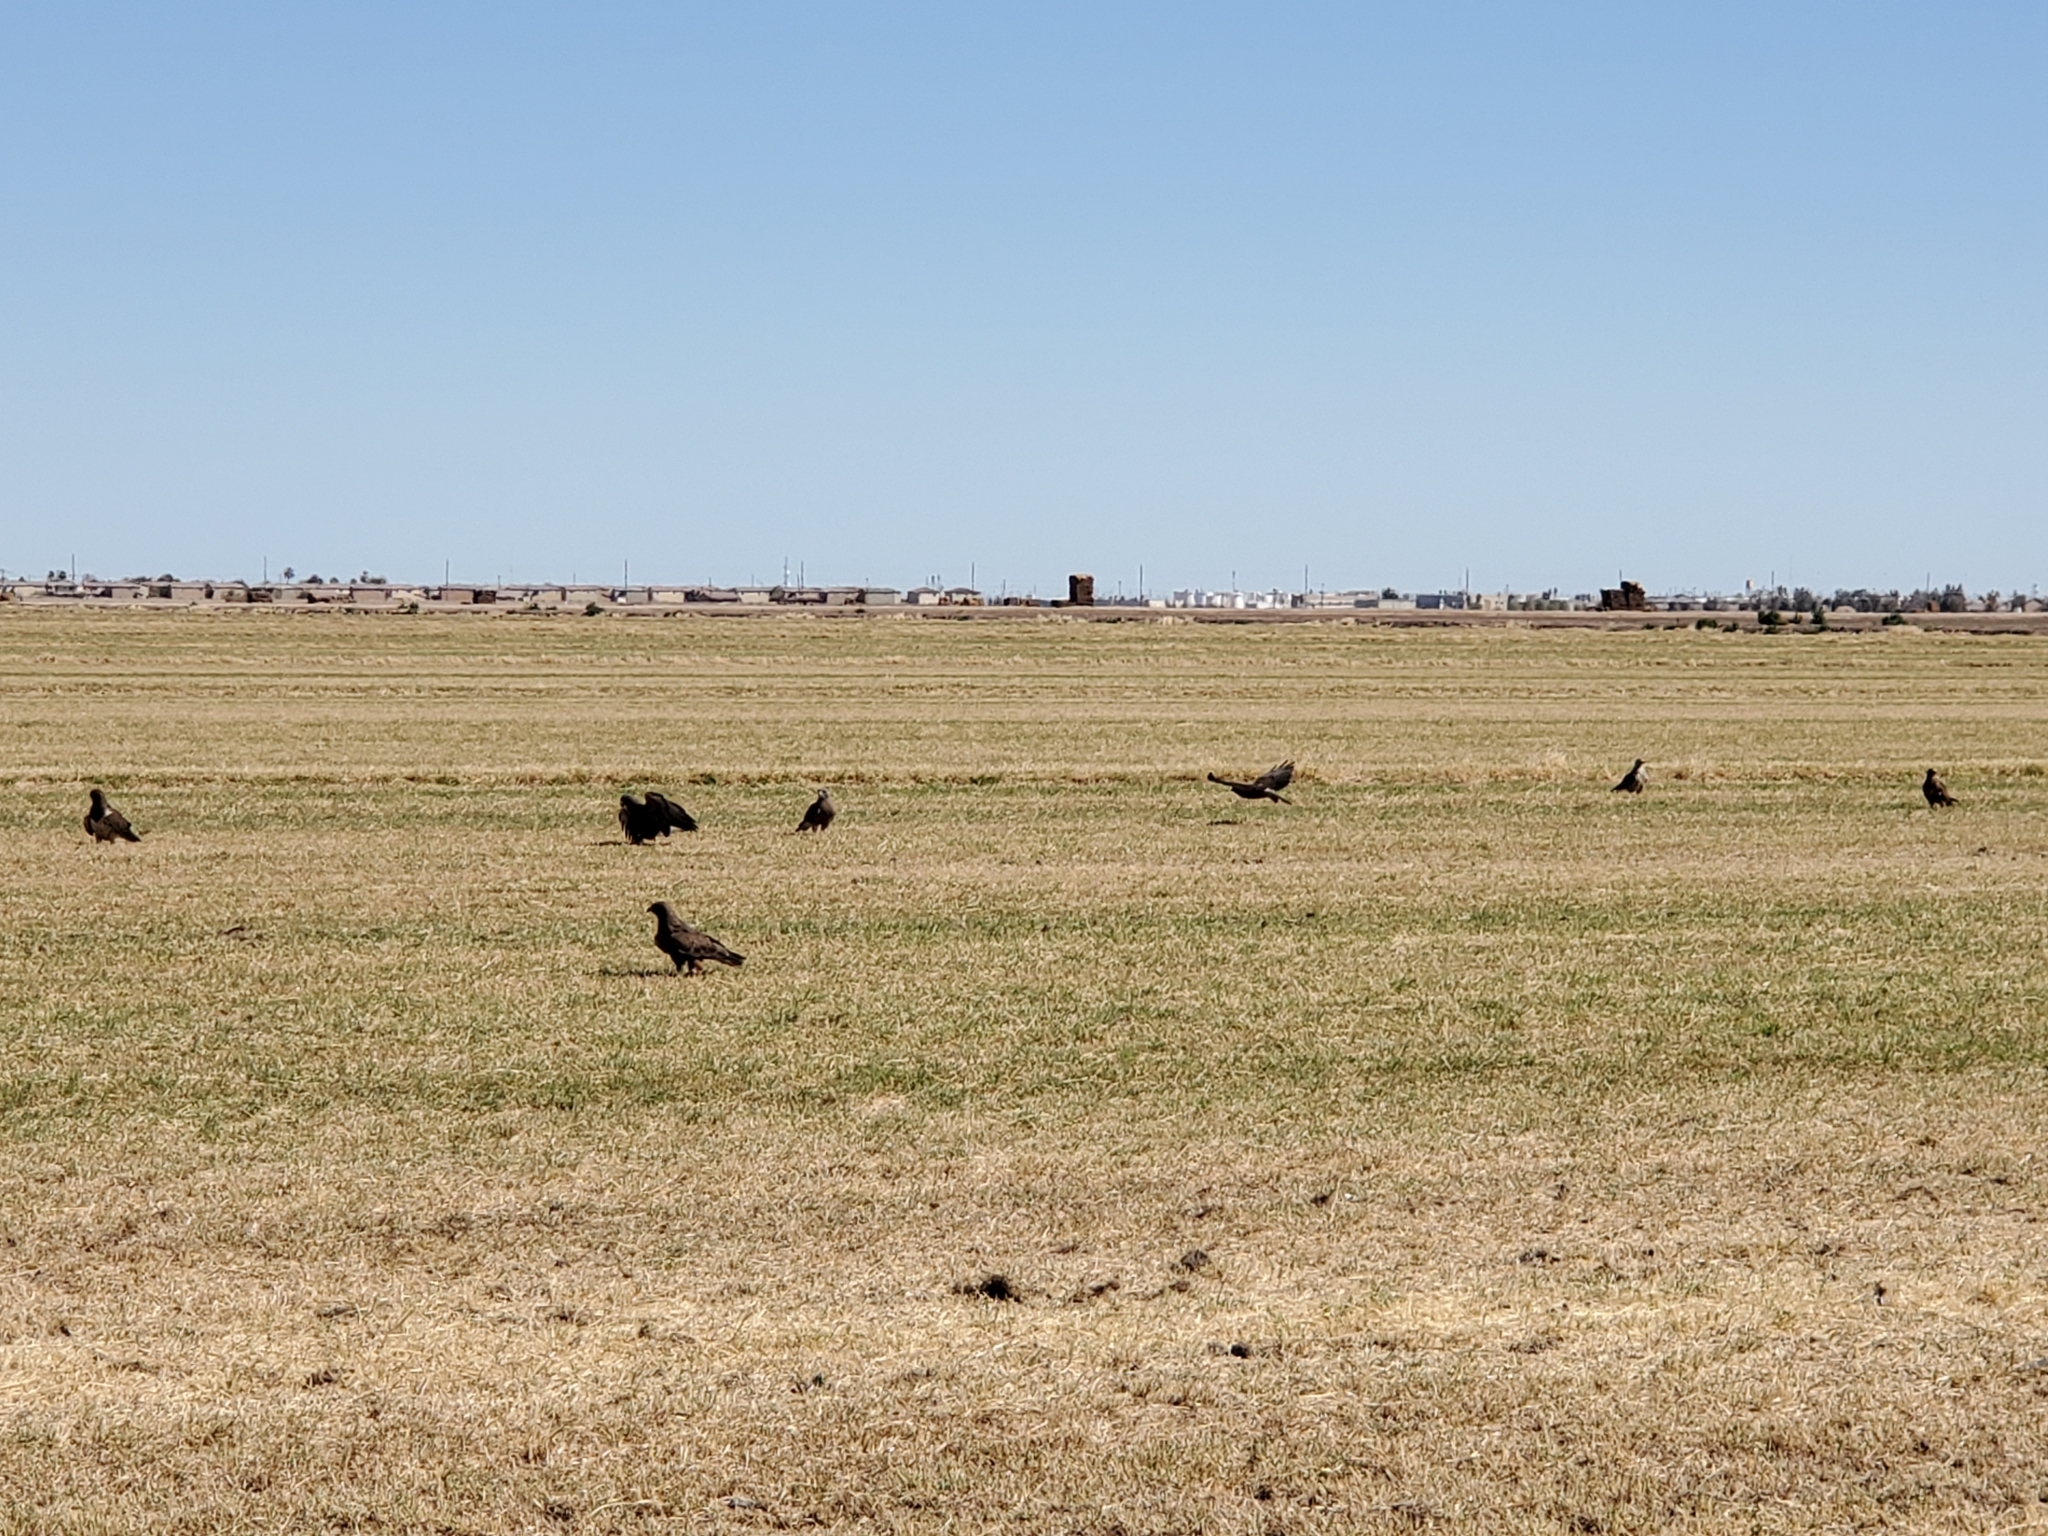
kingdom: Animalia
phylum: Chordata
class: Aves
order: Accipitriformes
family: Accipitridae
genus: Buteo
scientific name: Buteo swainsoni
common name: Swainson's hawk
